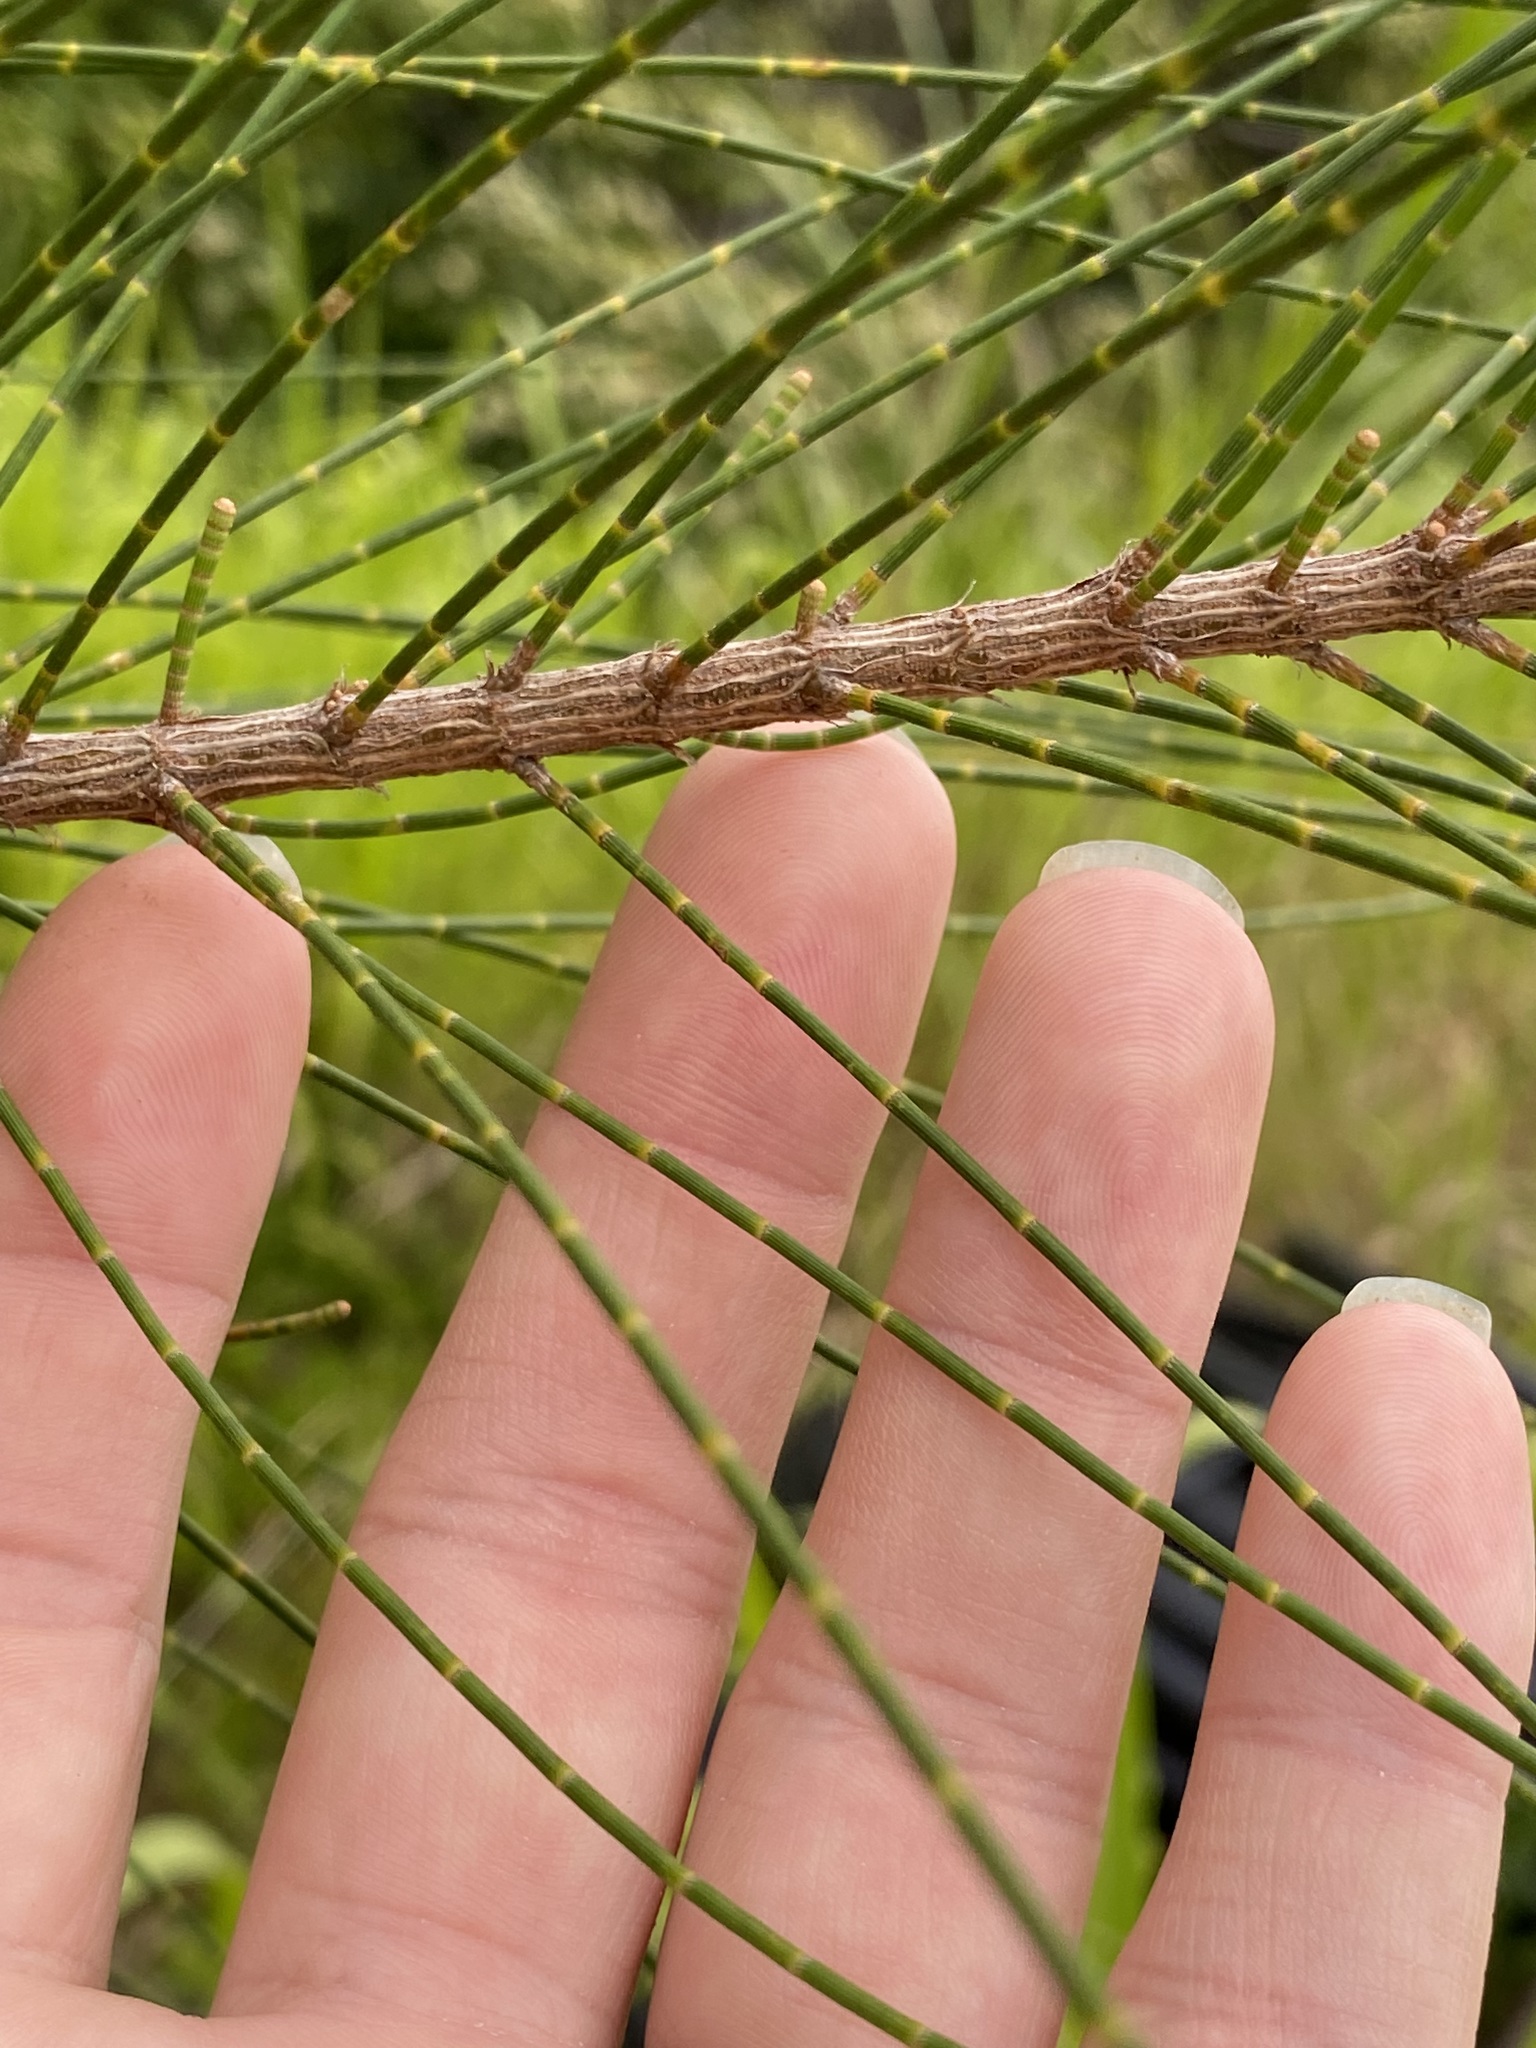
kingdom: Plantae
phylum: Tracheophyta
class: Magnoliopsida
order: Fagales
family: Casuarinaceae
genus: Casuarina
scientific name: Casuarina equisetifolia
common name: Beach sheoak
